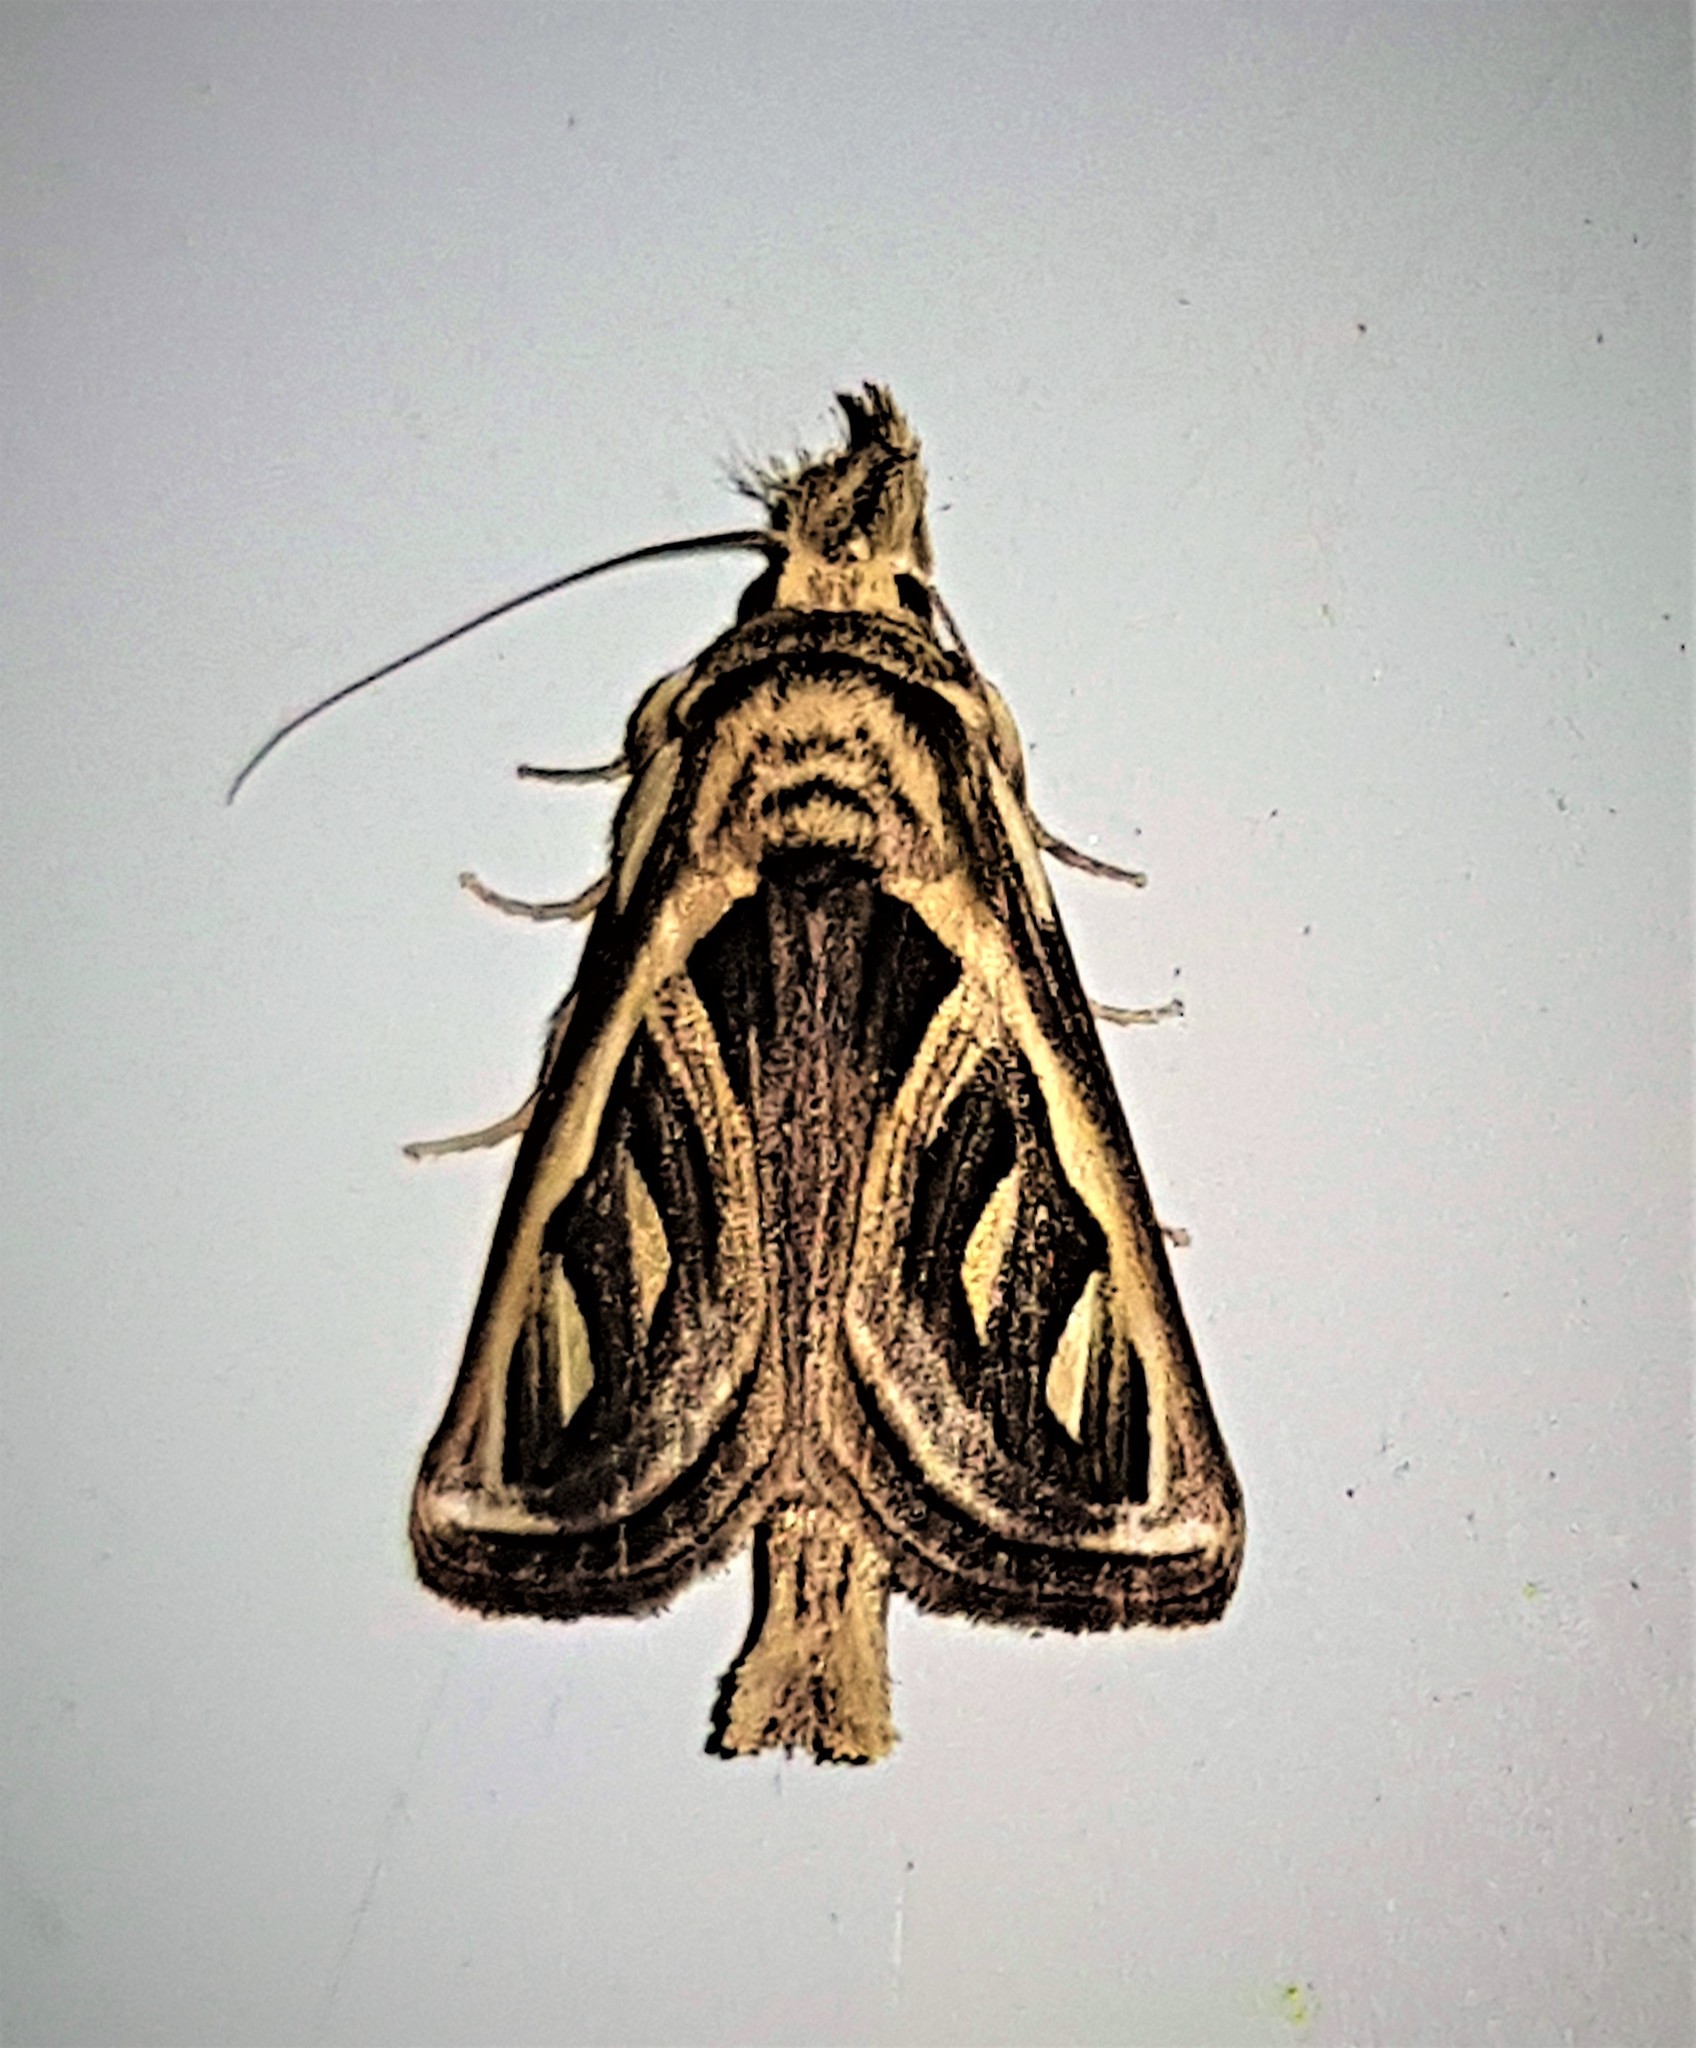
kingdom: Animalia
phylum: Arthropoda
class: Insecta
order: Lepidoptera
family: Notodontidae
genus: Ankale
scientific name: Ankale
